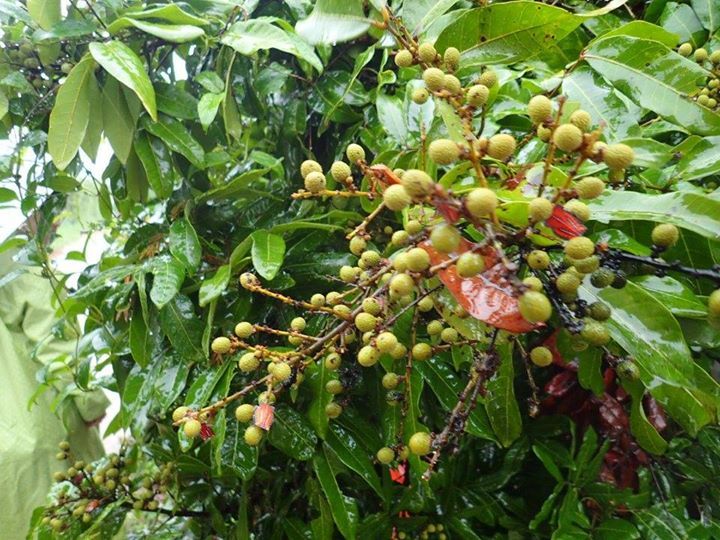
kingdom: Plantae
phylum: Tracheophyta
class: Magnoliopsida
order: Sapindales
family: Sapindaceae
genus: Dimocarpus
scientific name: Dimocarpus longan
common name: Longan
